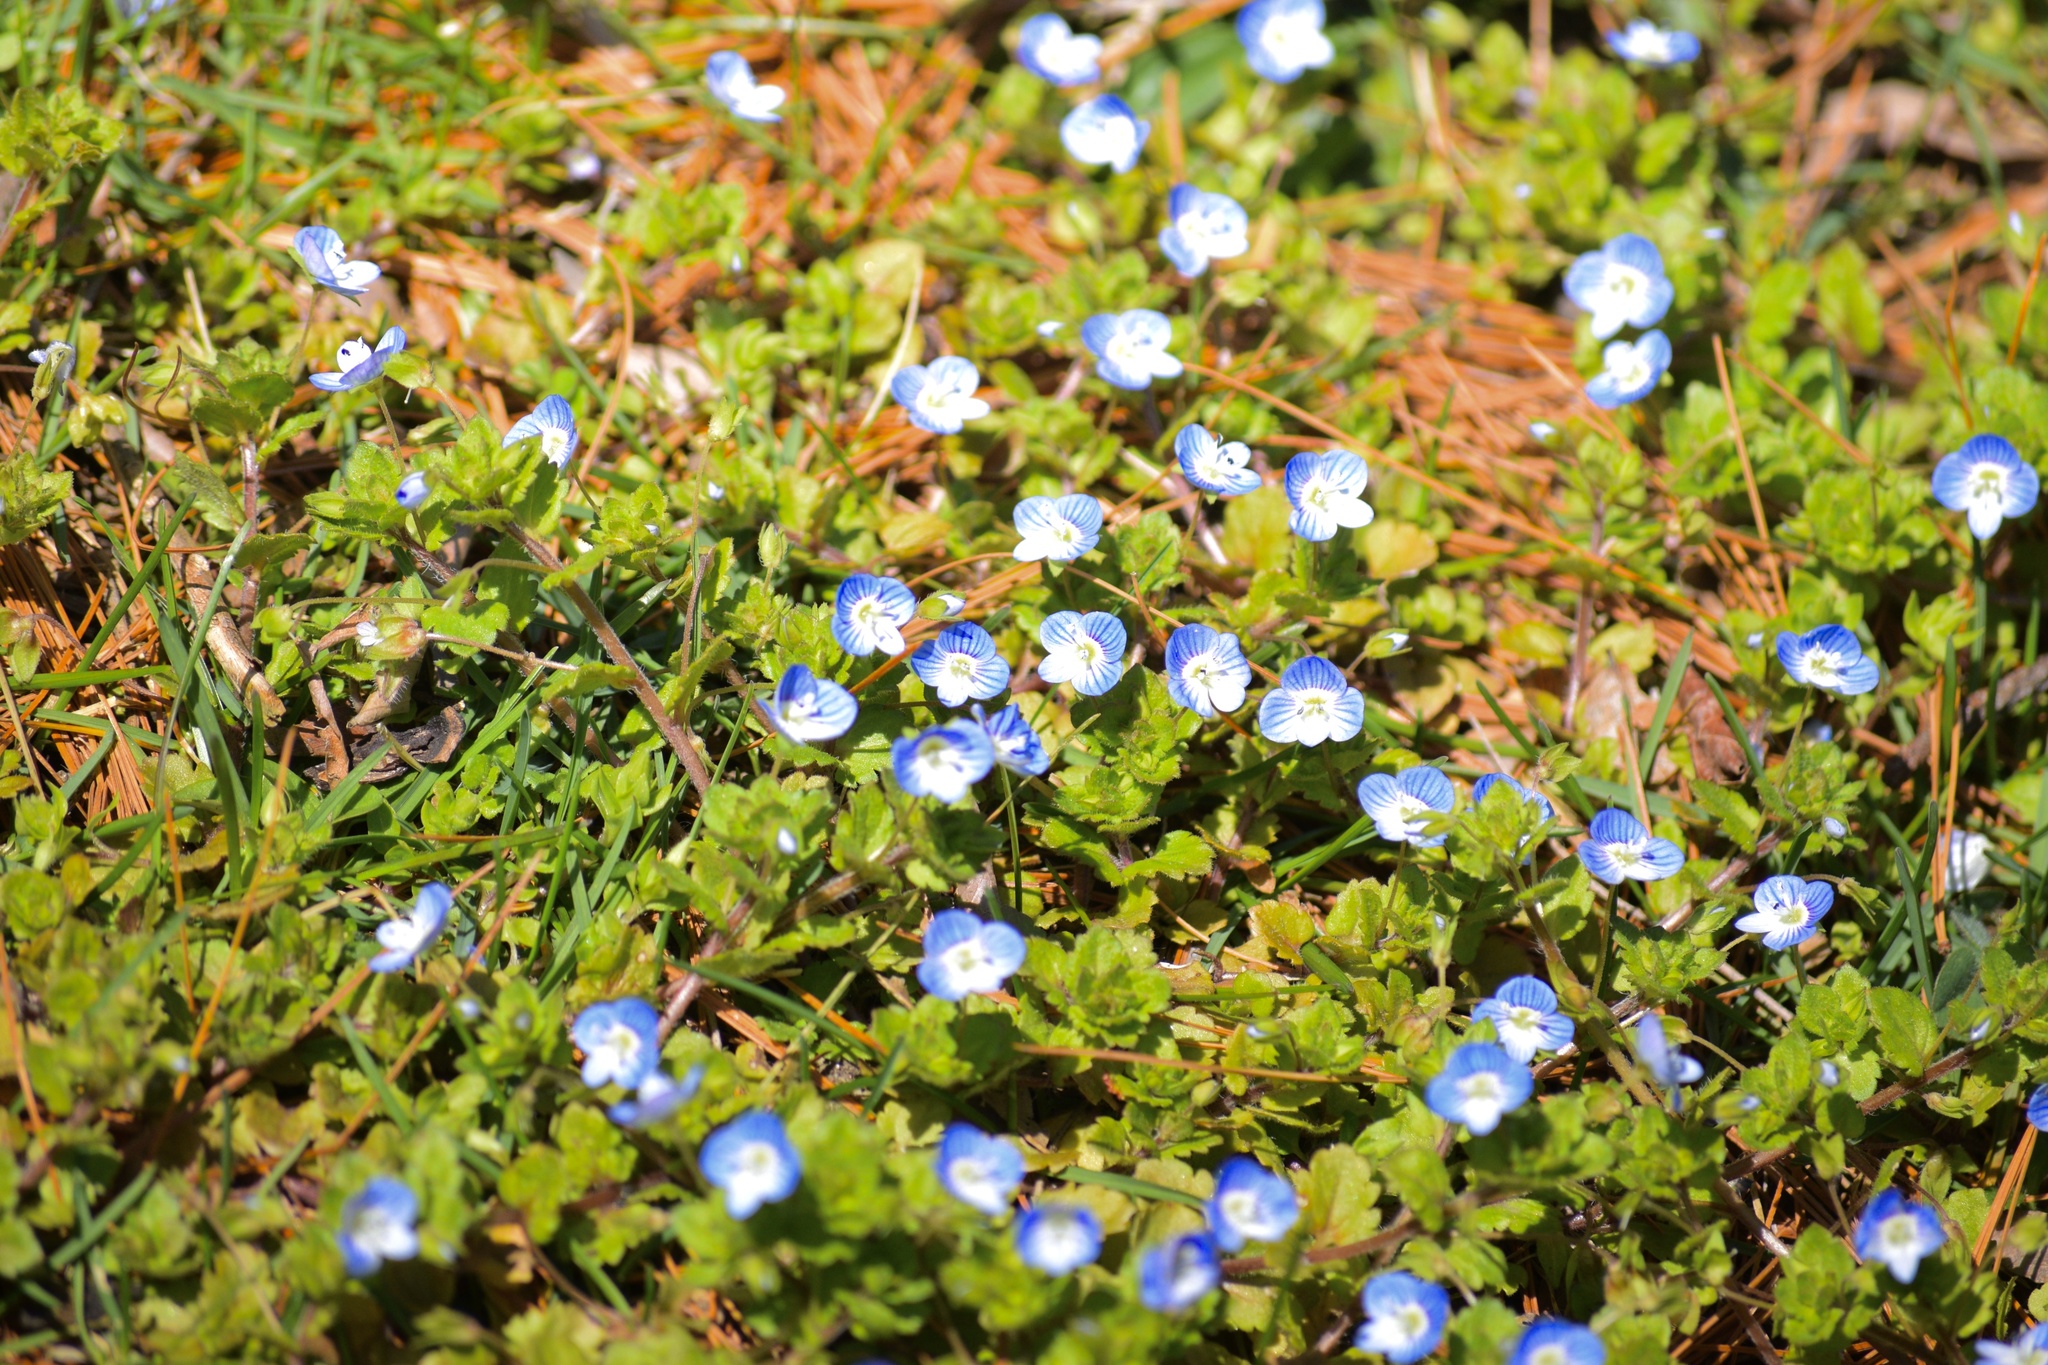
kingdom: Plantae
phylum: Tracheophyta
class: Magnoliopsida
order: Lamiales
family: Plantaginaceae
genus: Veronica
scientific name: Veronica persica
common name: Common field-speedwell
